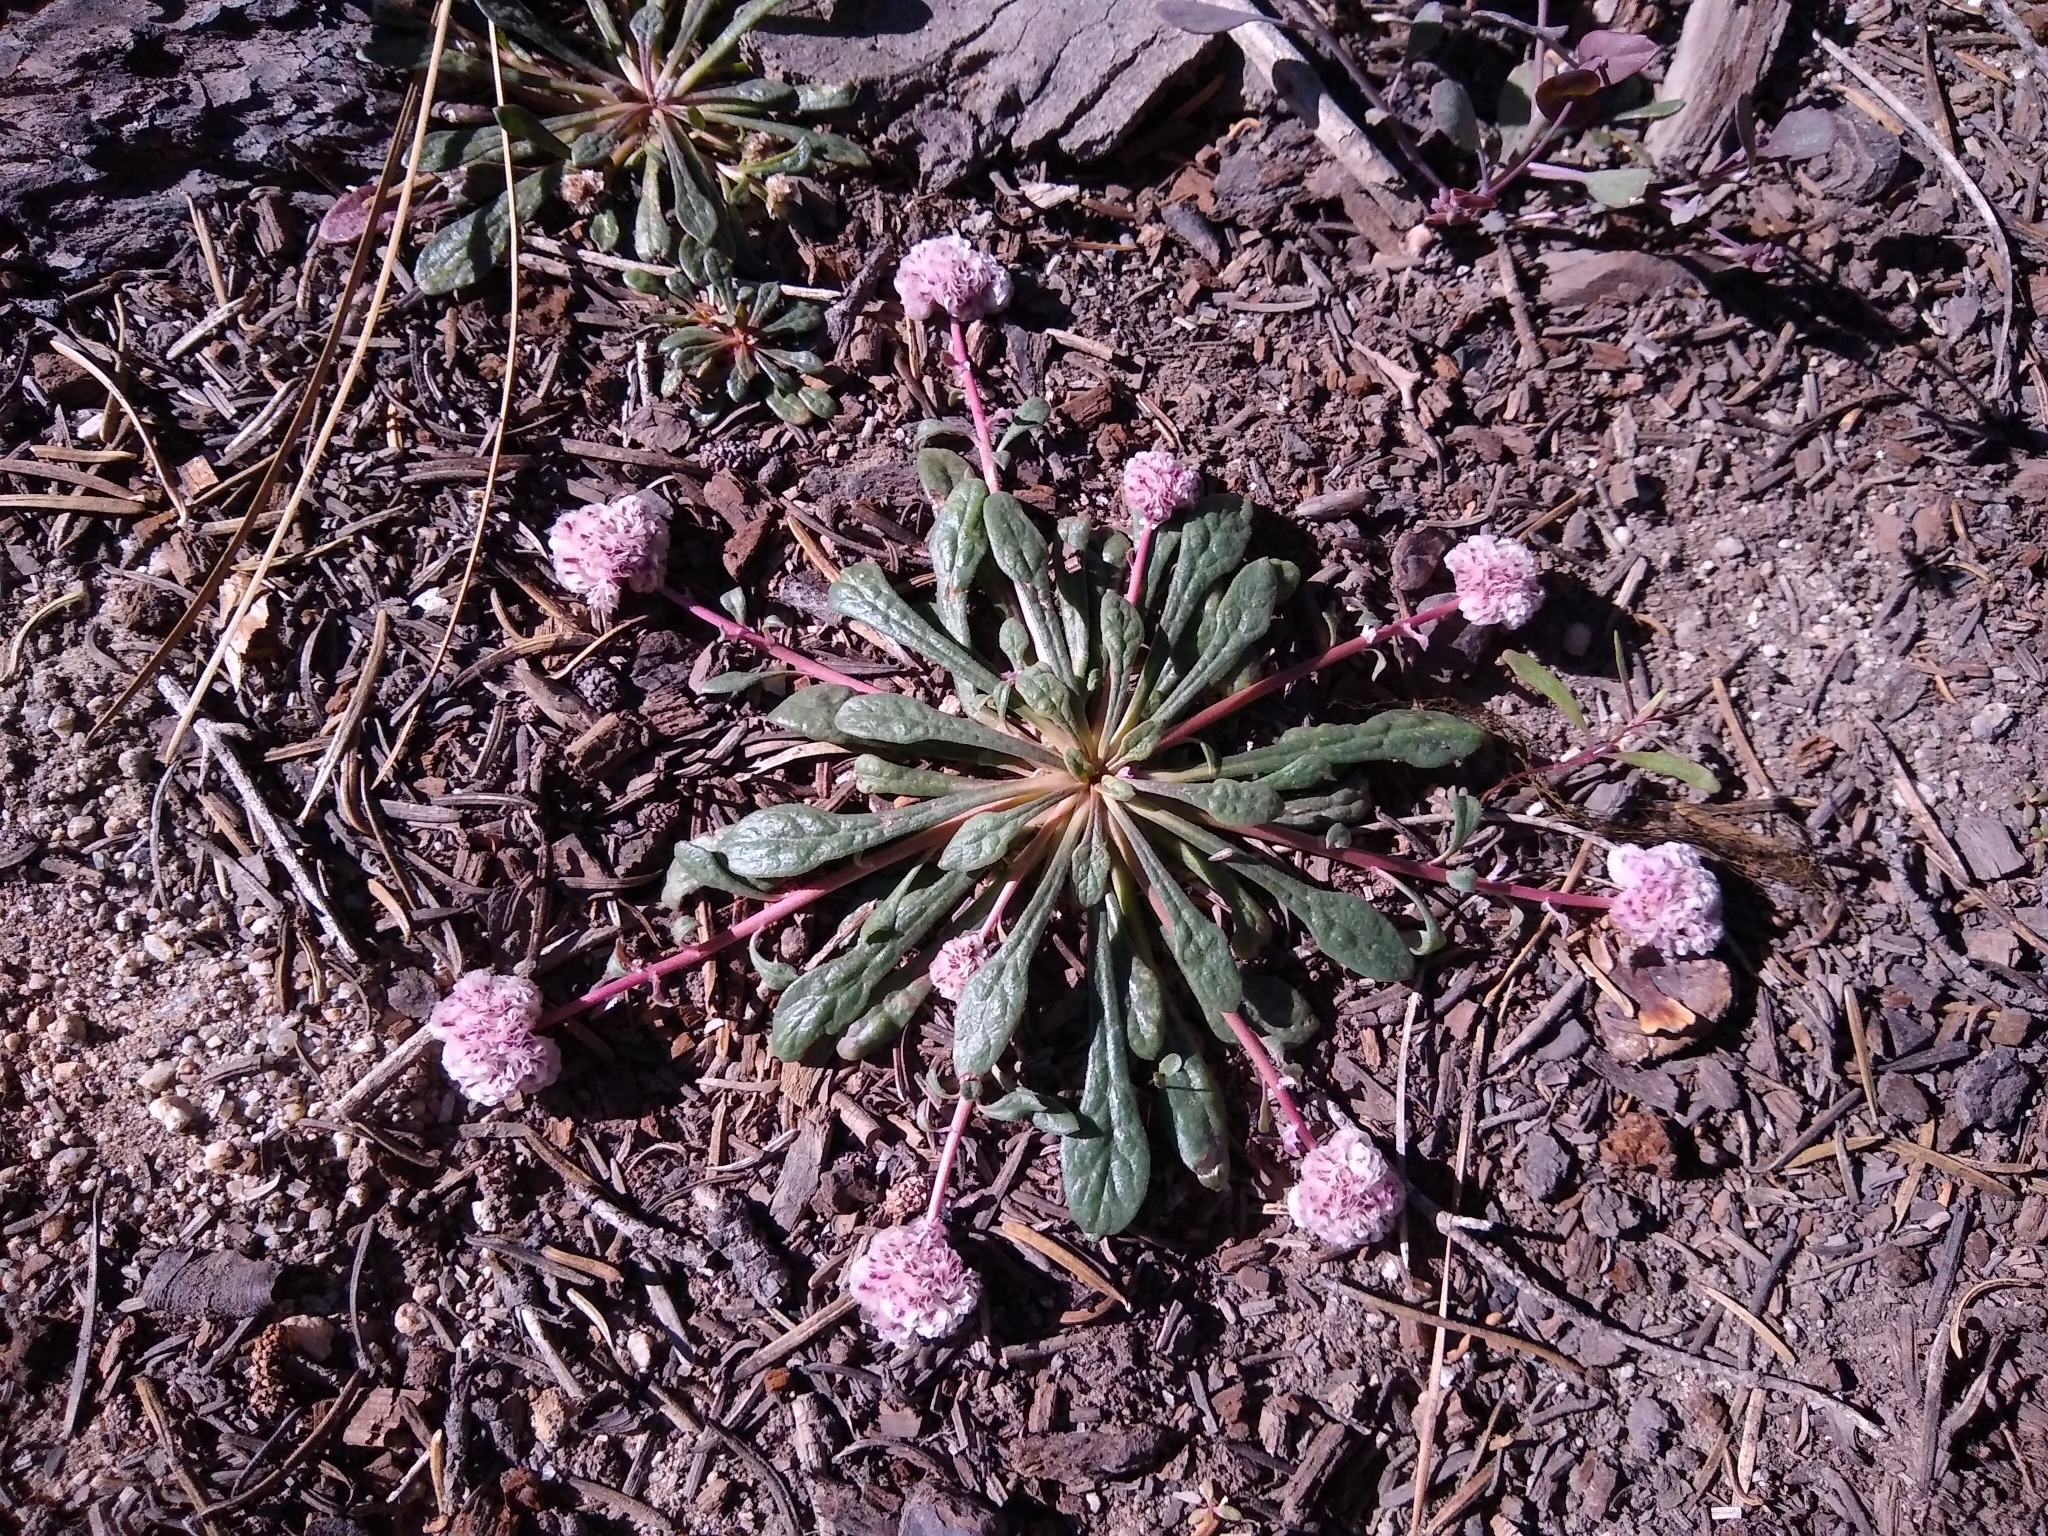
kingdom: Plantae
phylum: Tracheophyta
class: Magnoliopsida
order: Caryophyllales
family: Montiaceae
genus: Calyptridium
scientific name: Calyptridium monospermum
